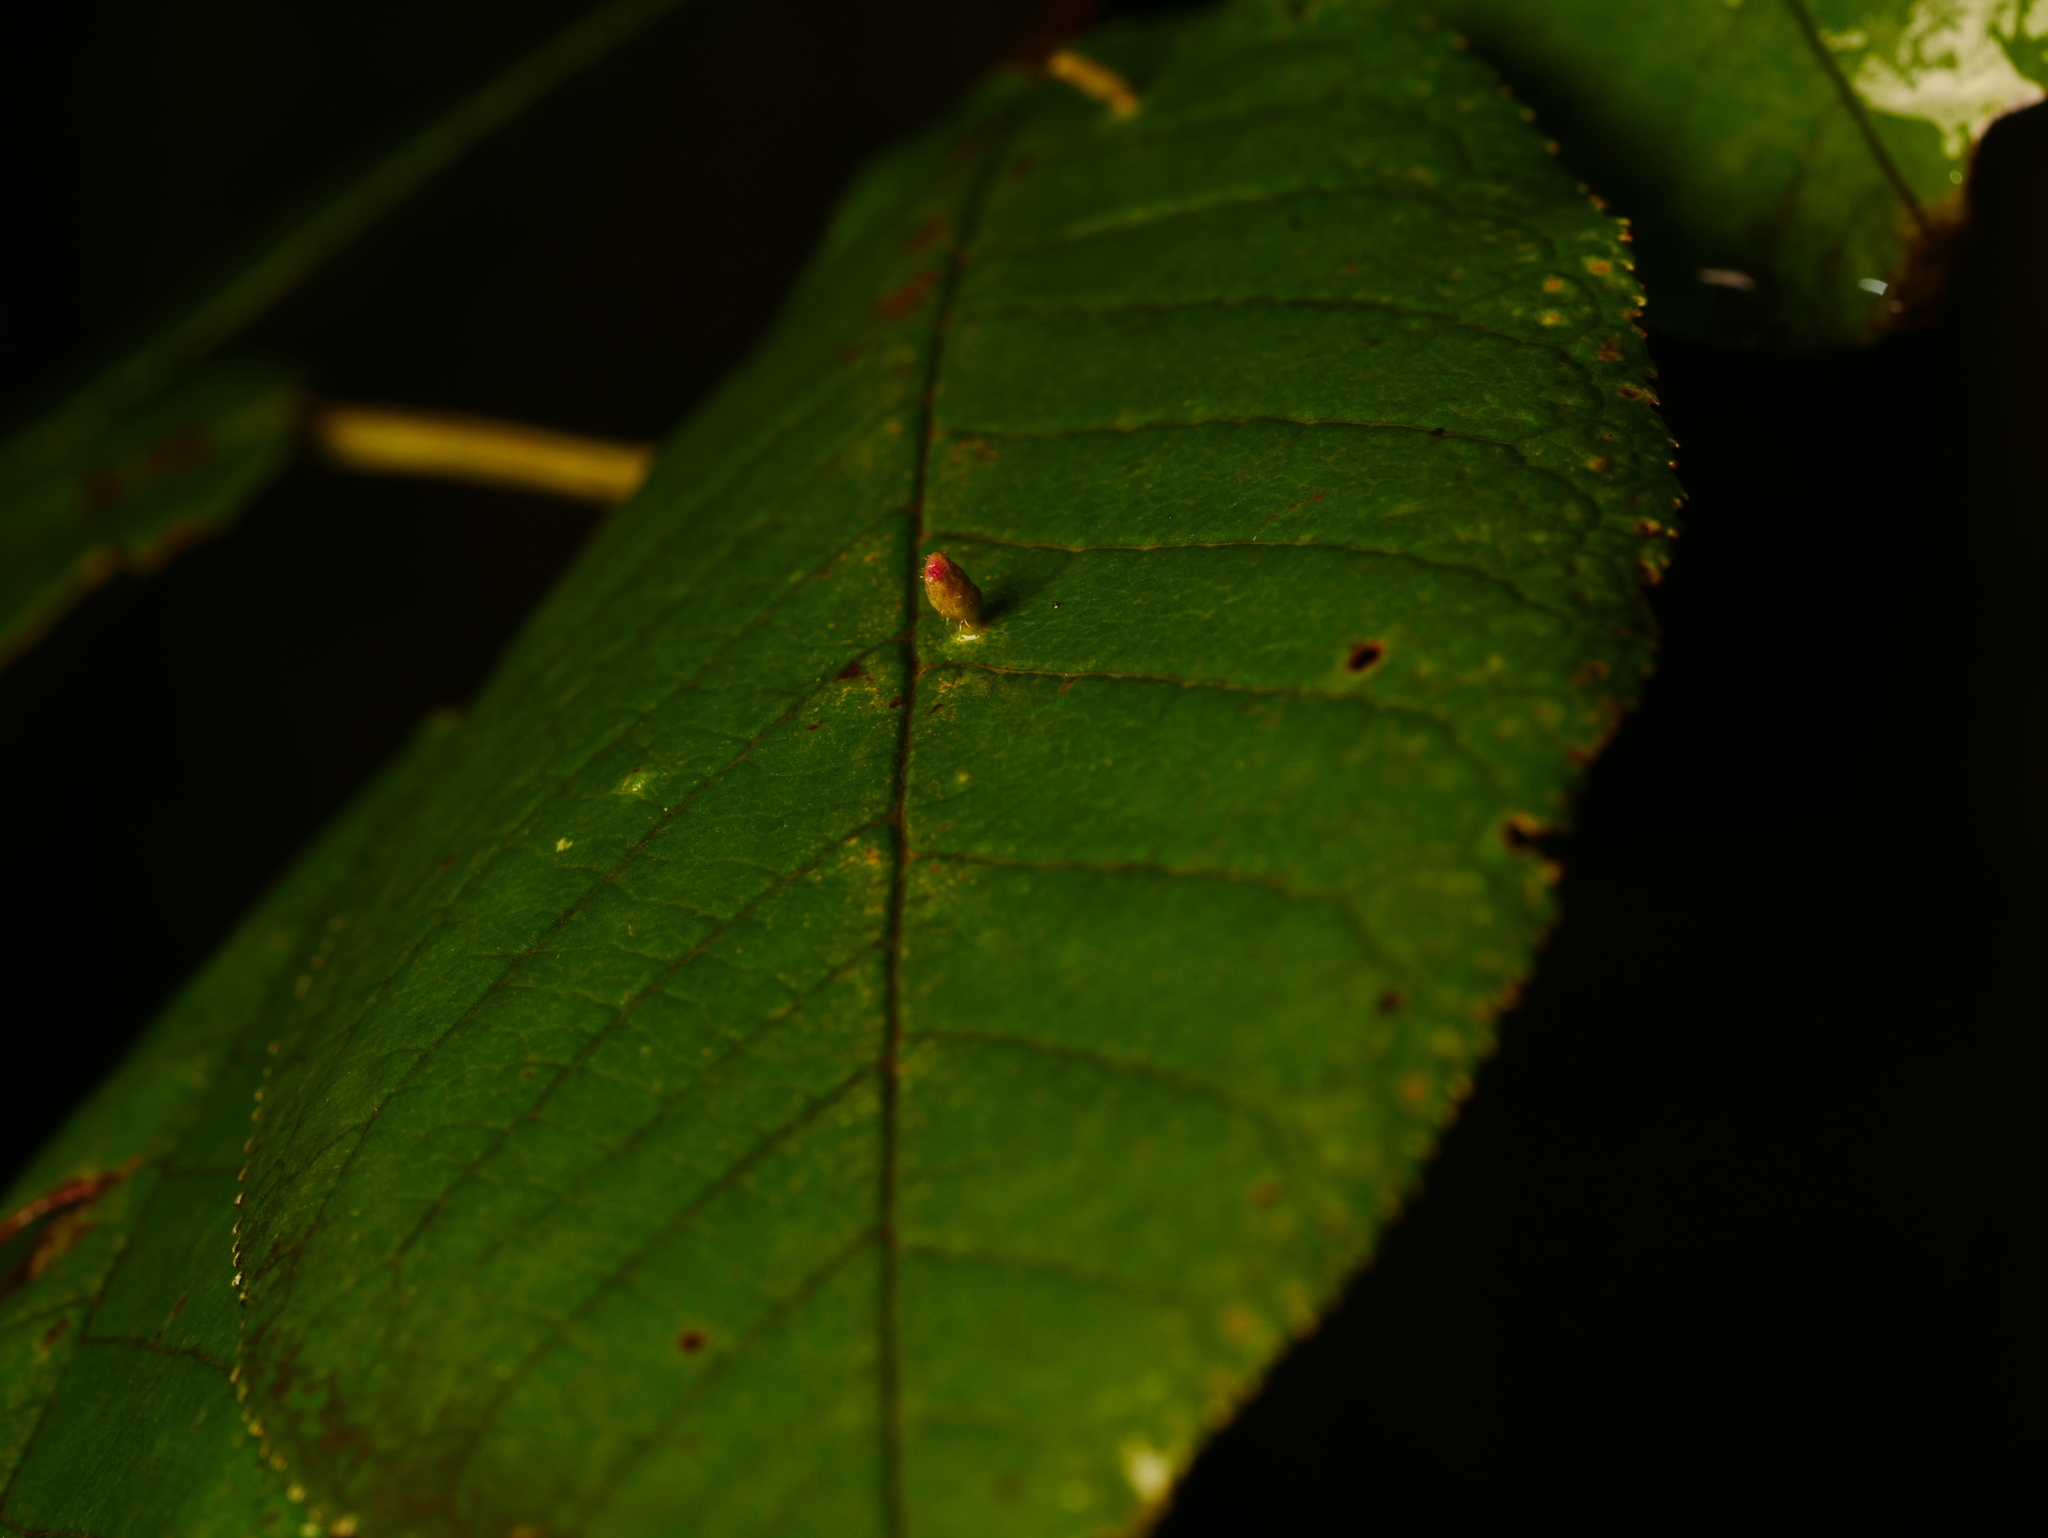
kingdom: Animalia
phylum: Arthropoda
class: Arachnida
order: Trombidiformes
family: Eriophyidae
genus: Phyllocoptes
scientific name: Phyllocoptes eupadi
